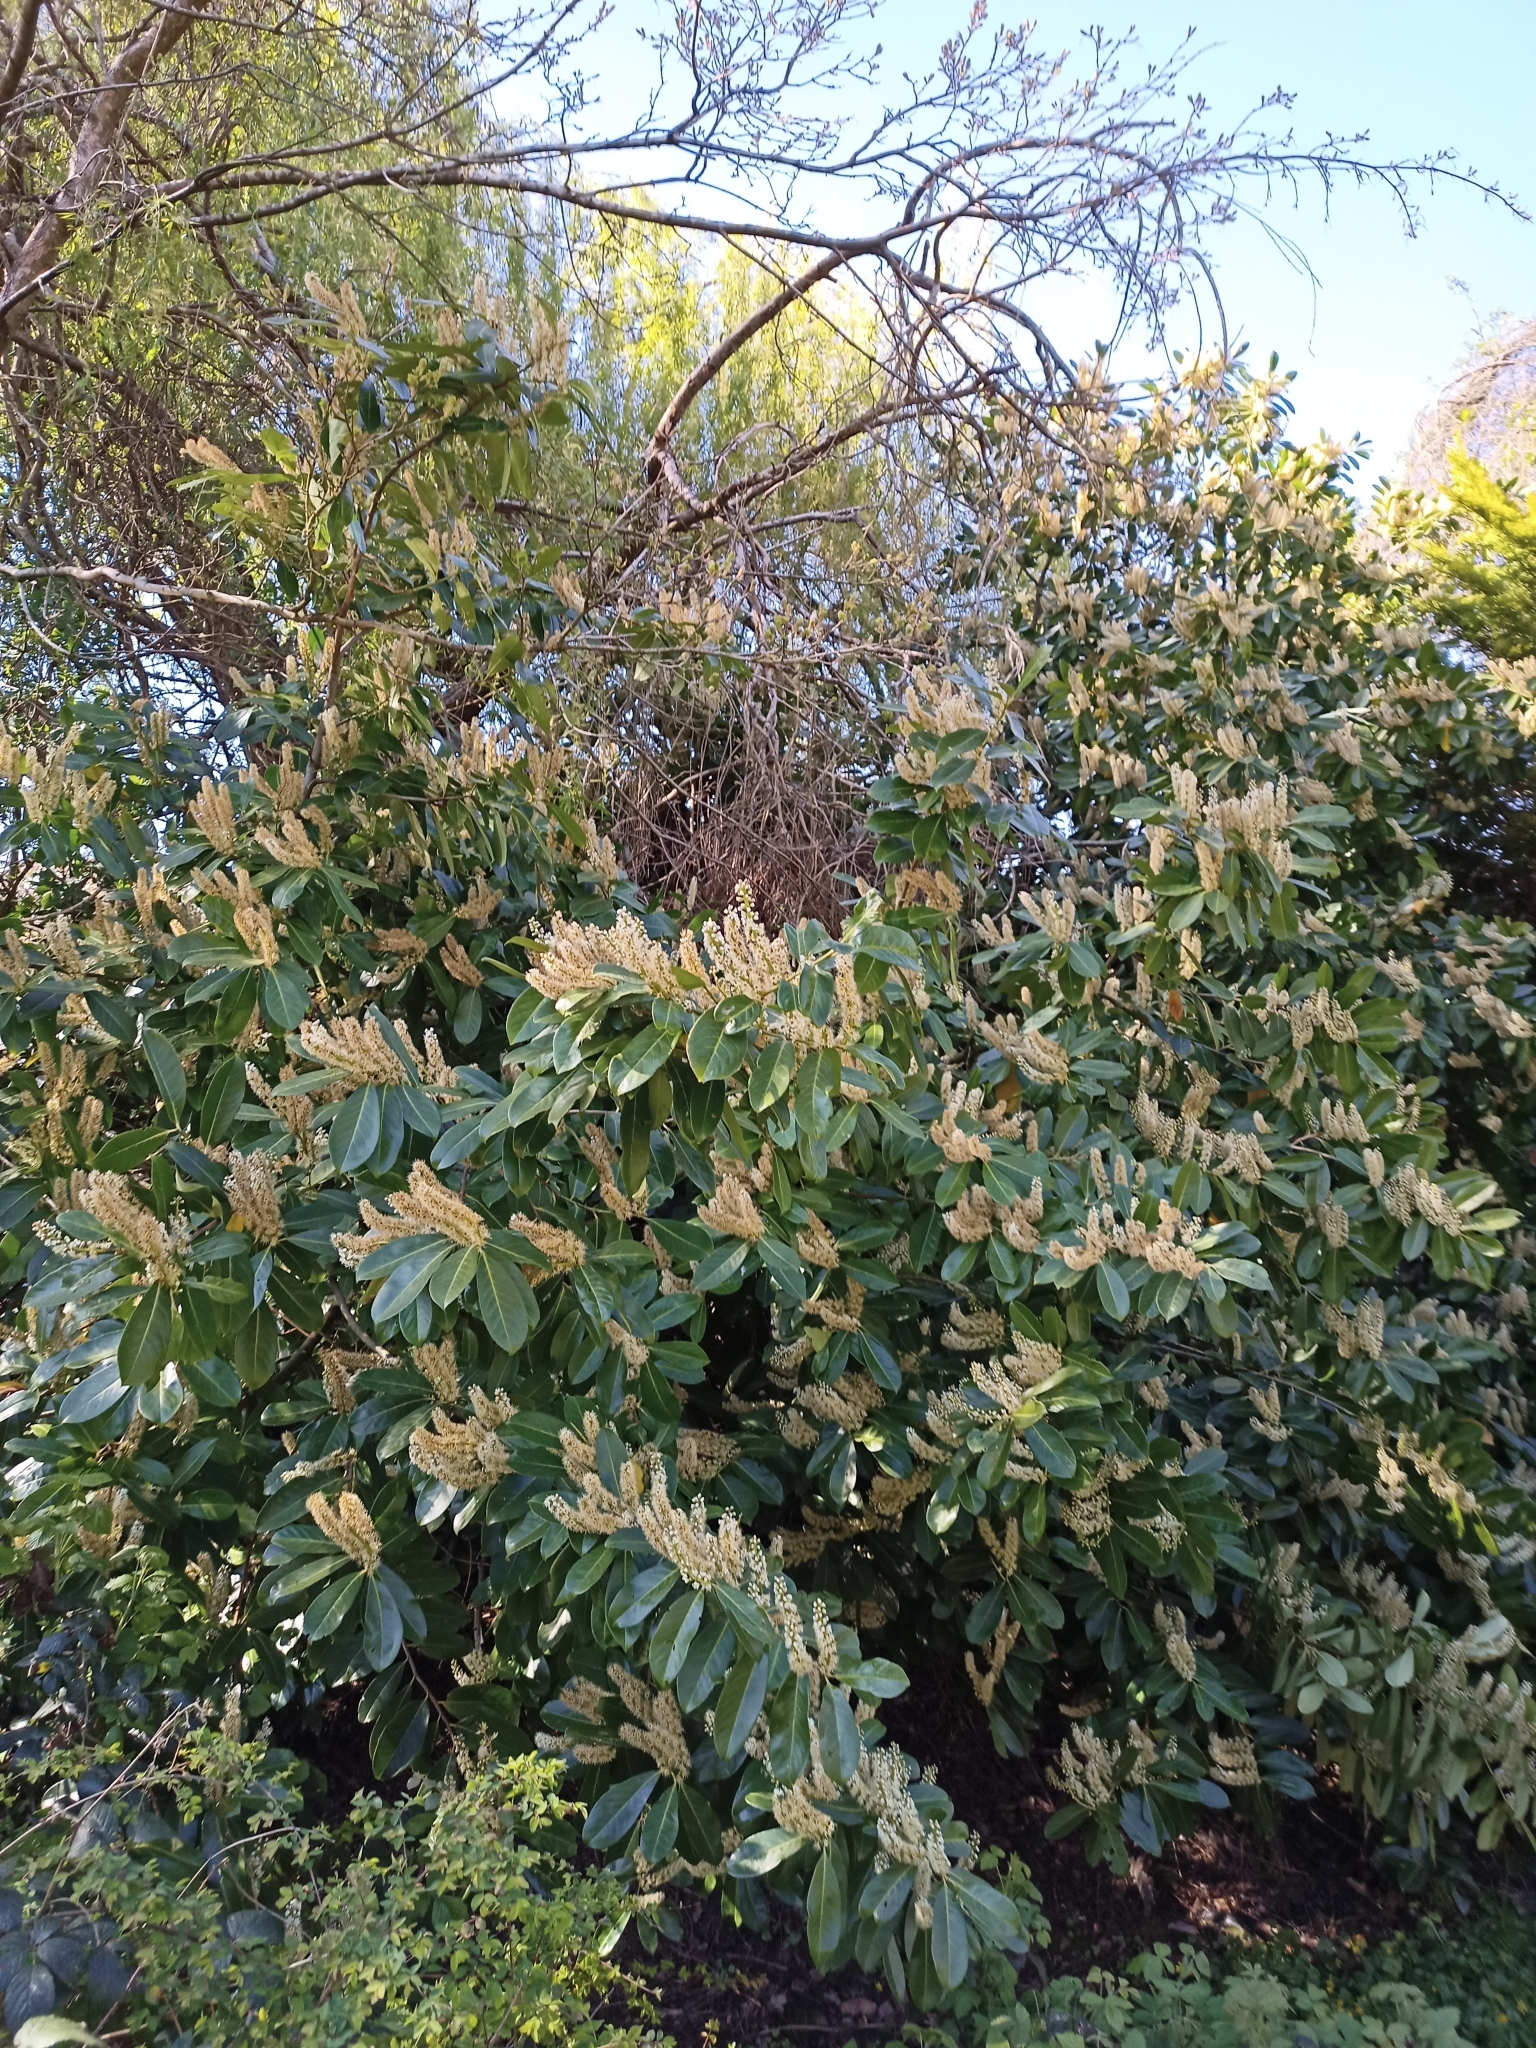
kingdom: Plantae
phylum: Tracheophyta
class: Magnoliopsida
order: Rosales
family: Rosaceae
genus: Prunus
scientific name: Prunus laurocerasus
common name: Cherry laurel
